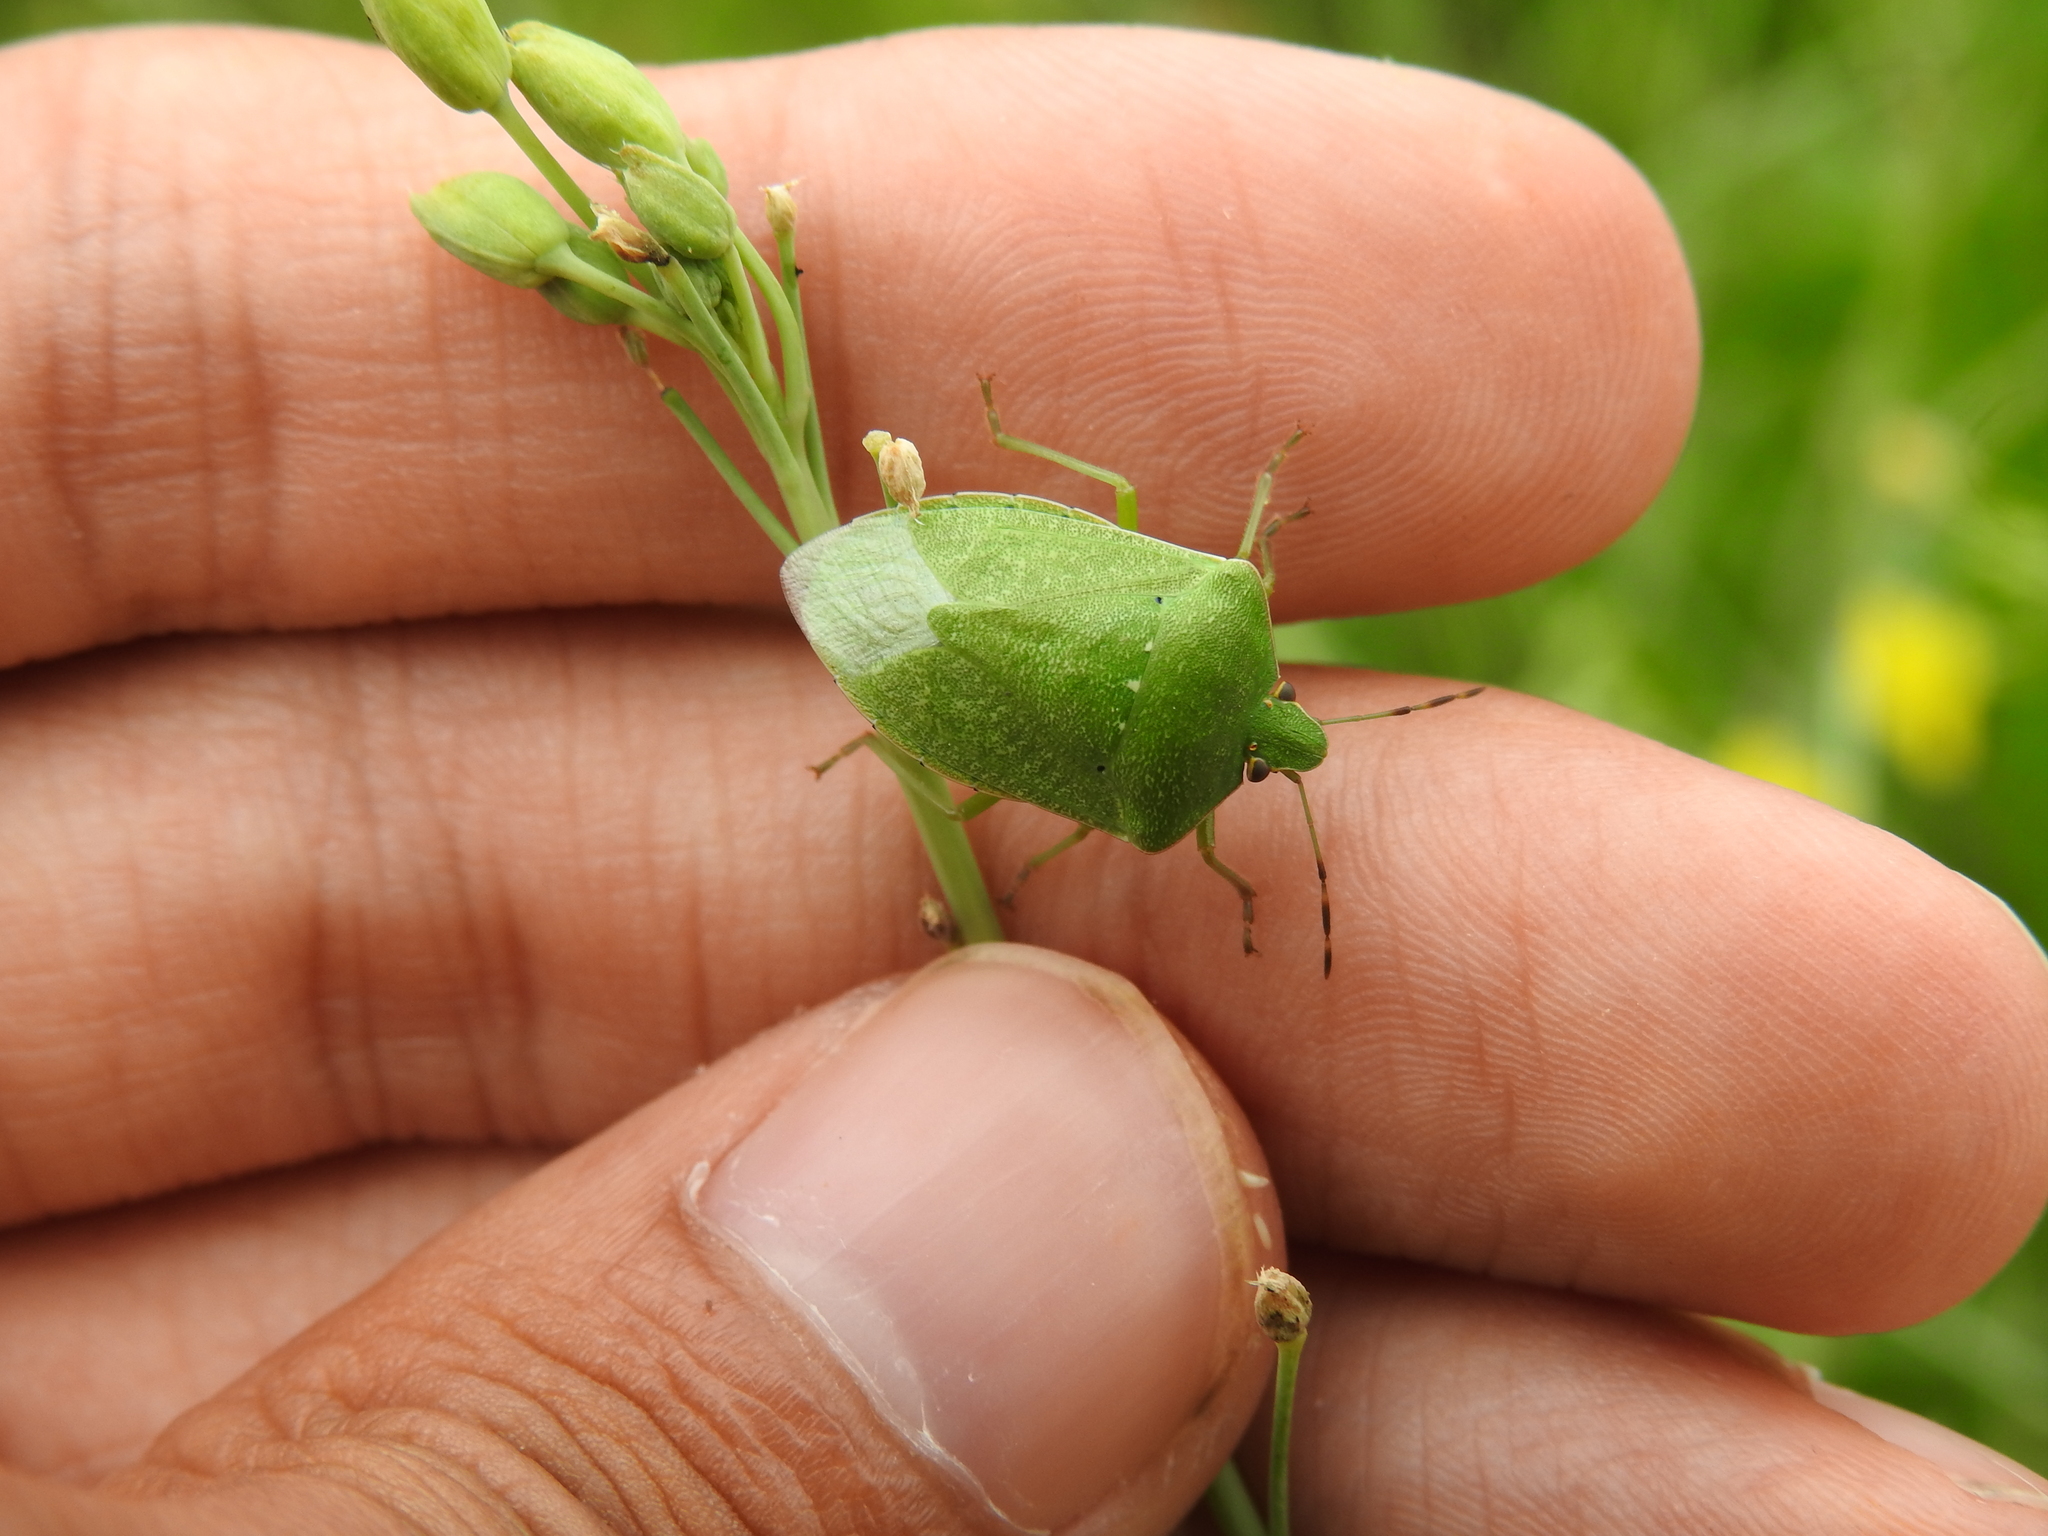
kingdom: Animalia
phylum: Arthropoda
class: Insecta
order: Hemiptera
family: Pentatomidae
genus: Nezara
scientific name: Nezara viridula
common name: Southern green stink bug
